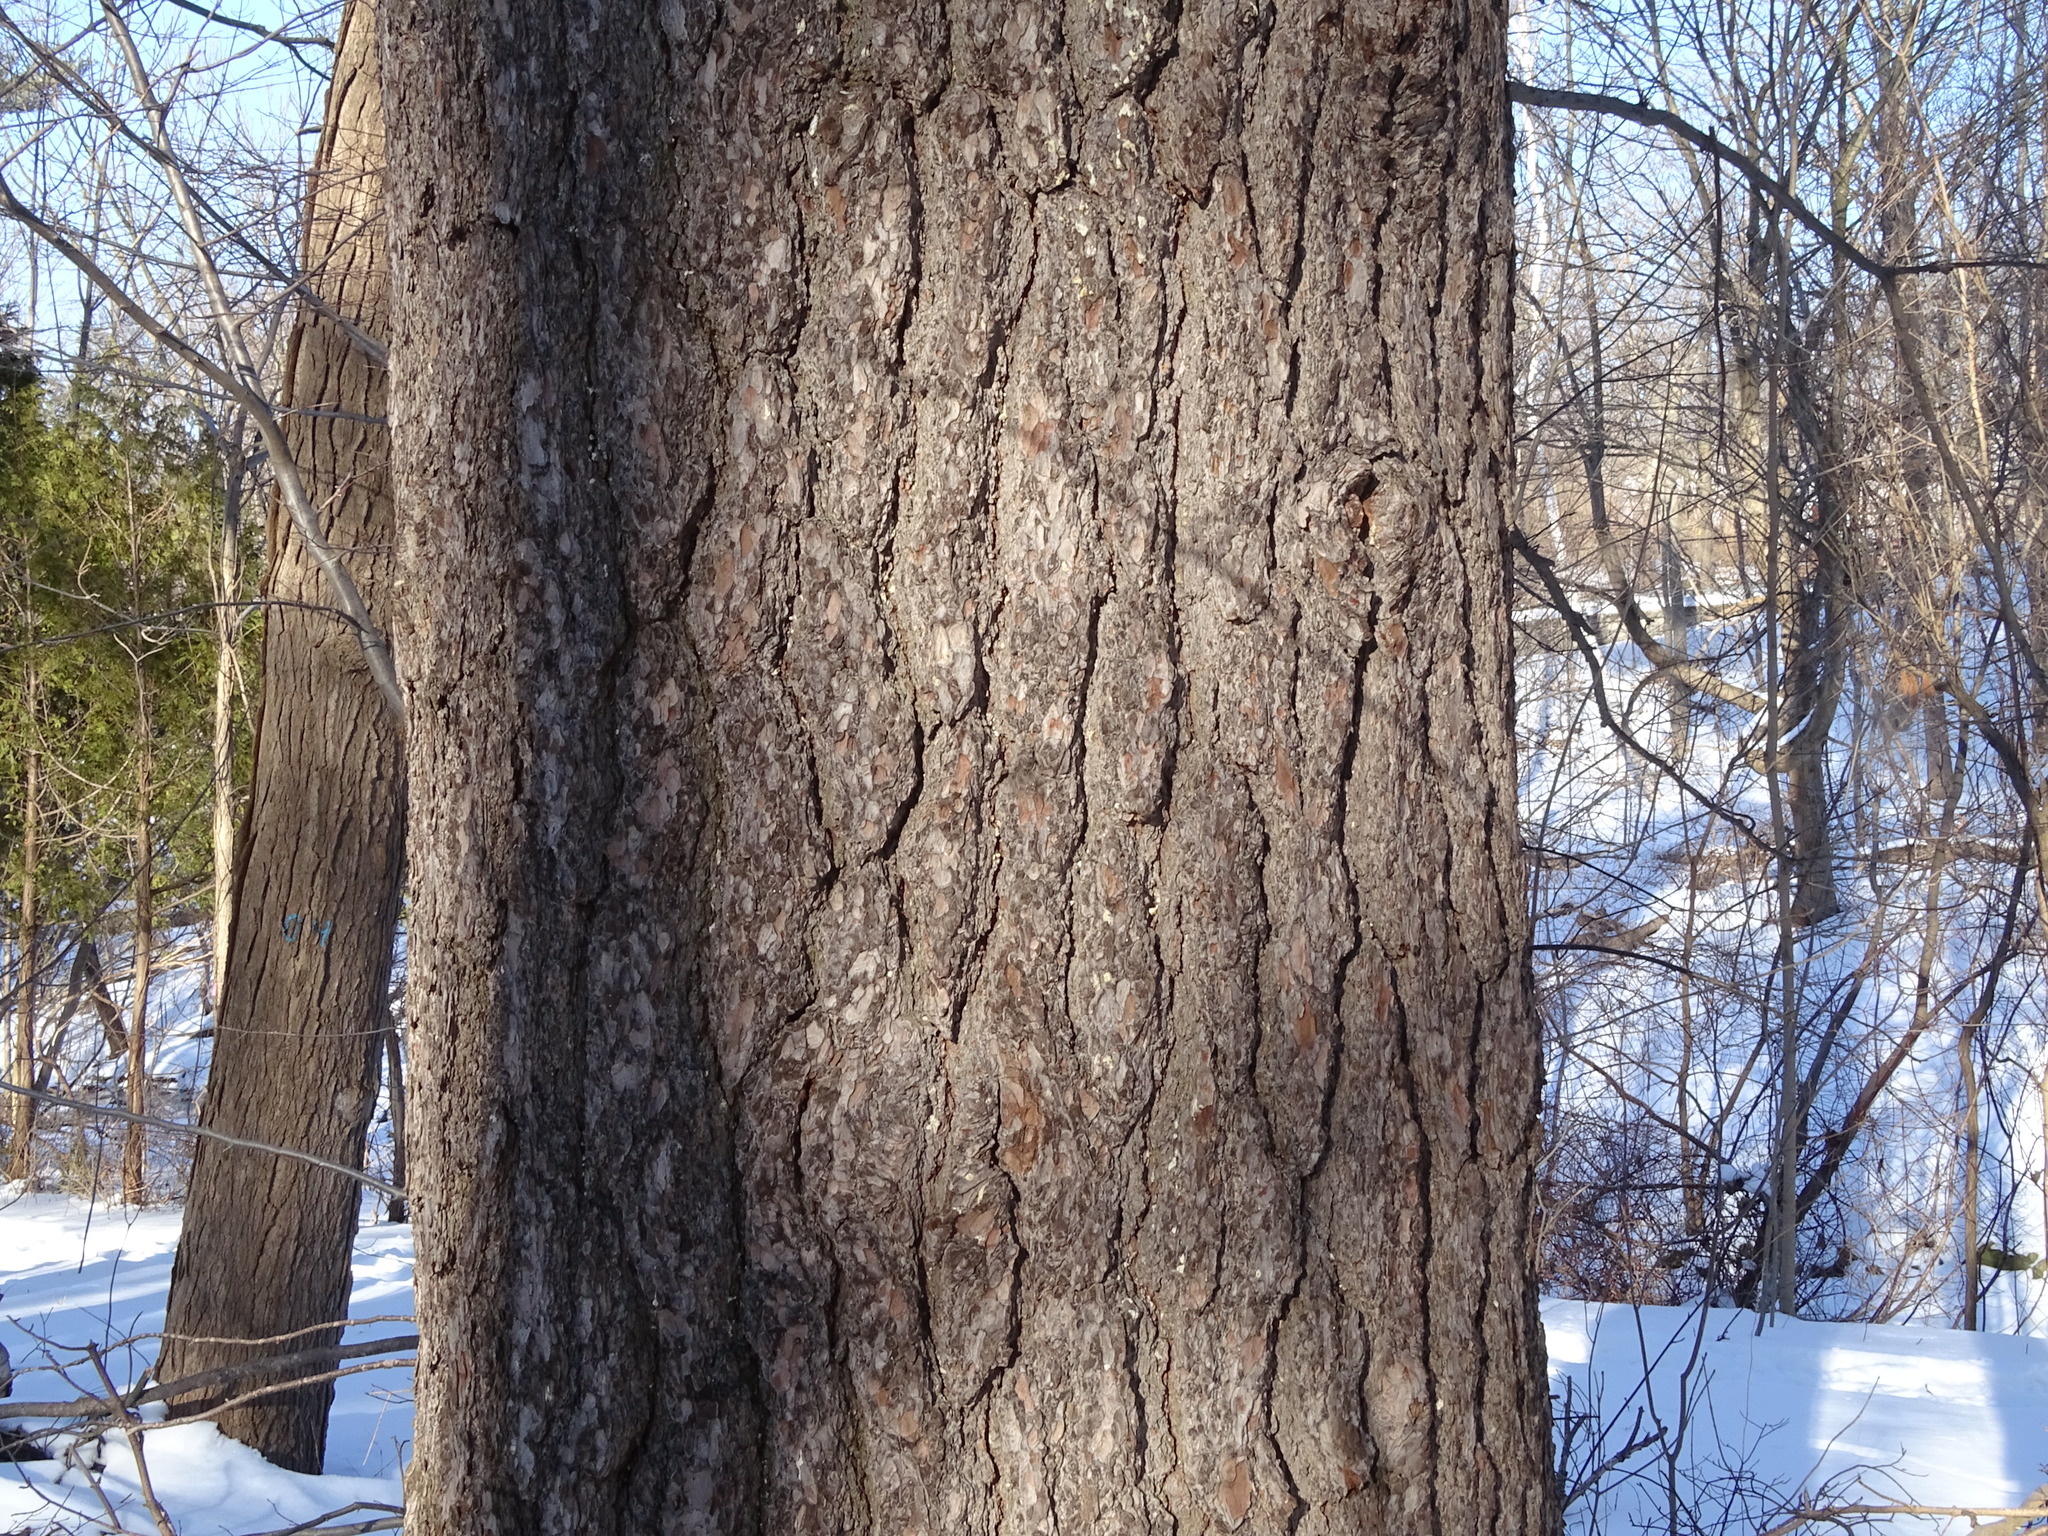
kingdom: Plantae
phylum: Tracheophyta
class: Pinopsida
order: Pinales
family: Pinaceae
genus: Pinus
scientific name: Pinus strobus
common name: Weymouth pine
